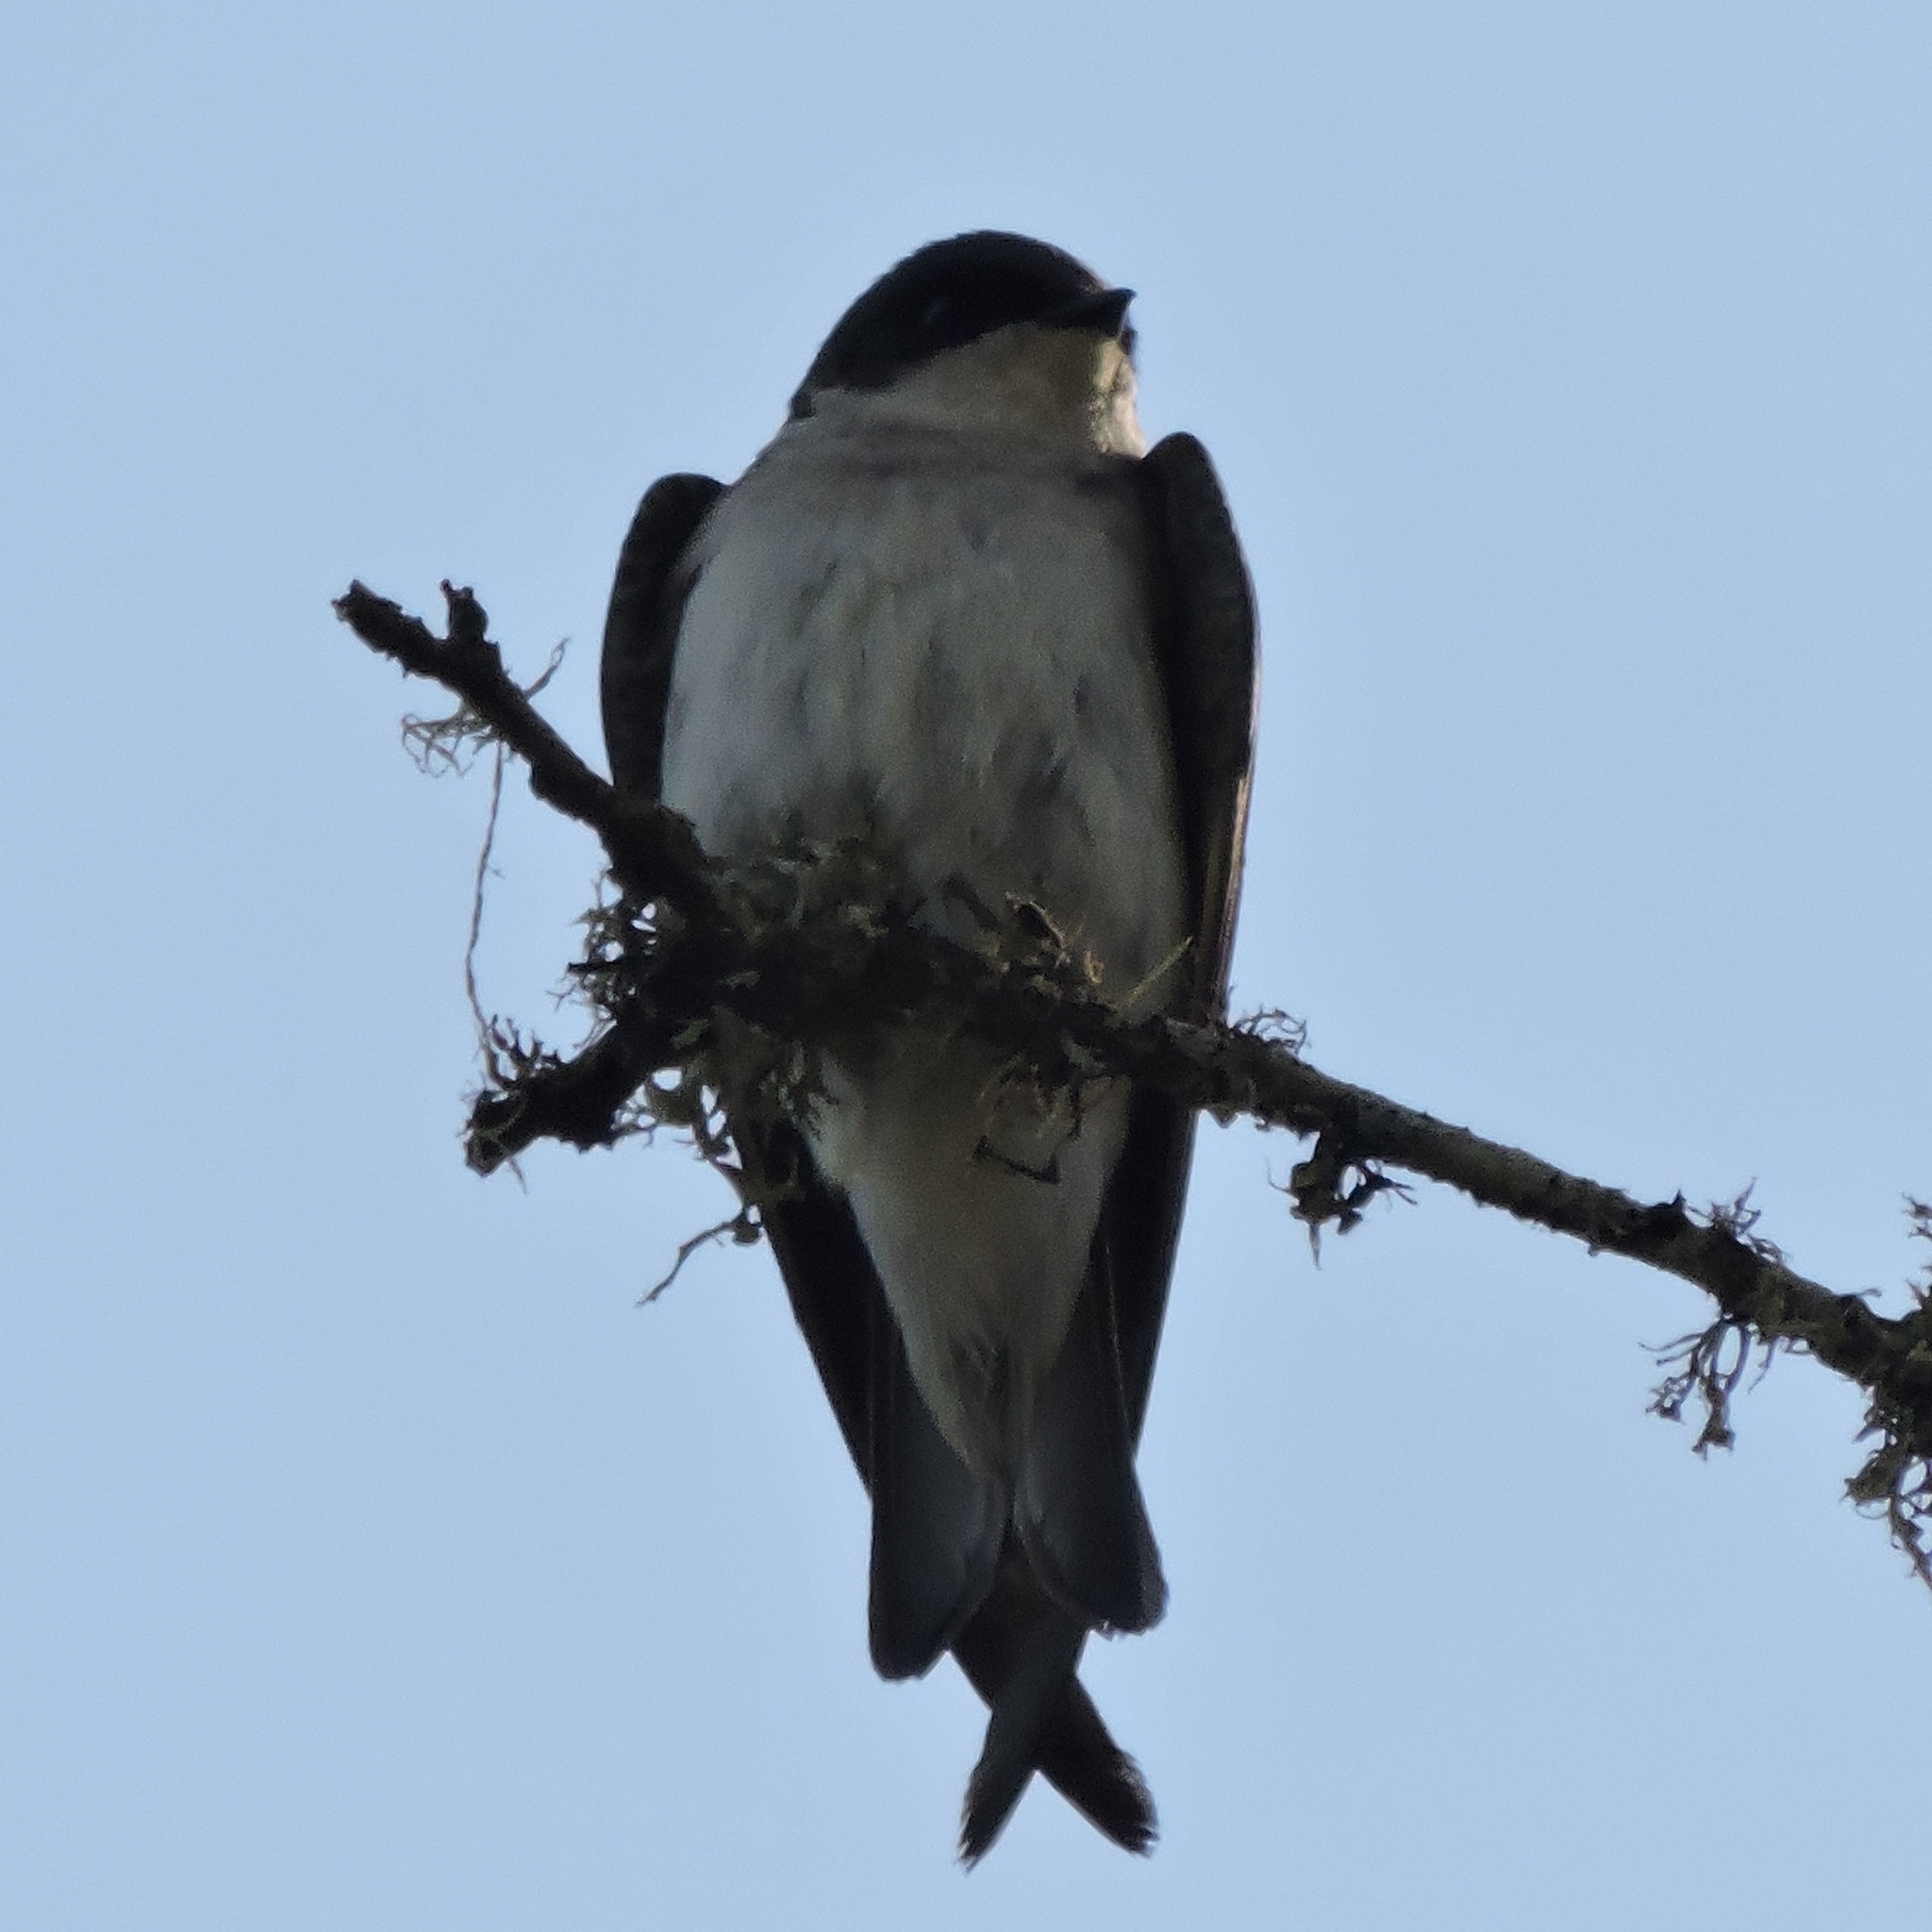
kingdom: Animalia
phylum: Chordata
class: Aves
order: Passeriformes
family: Hirundinidae
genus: Tachycineta
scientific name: Tachycineta bicolor
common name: Tree swallow
